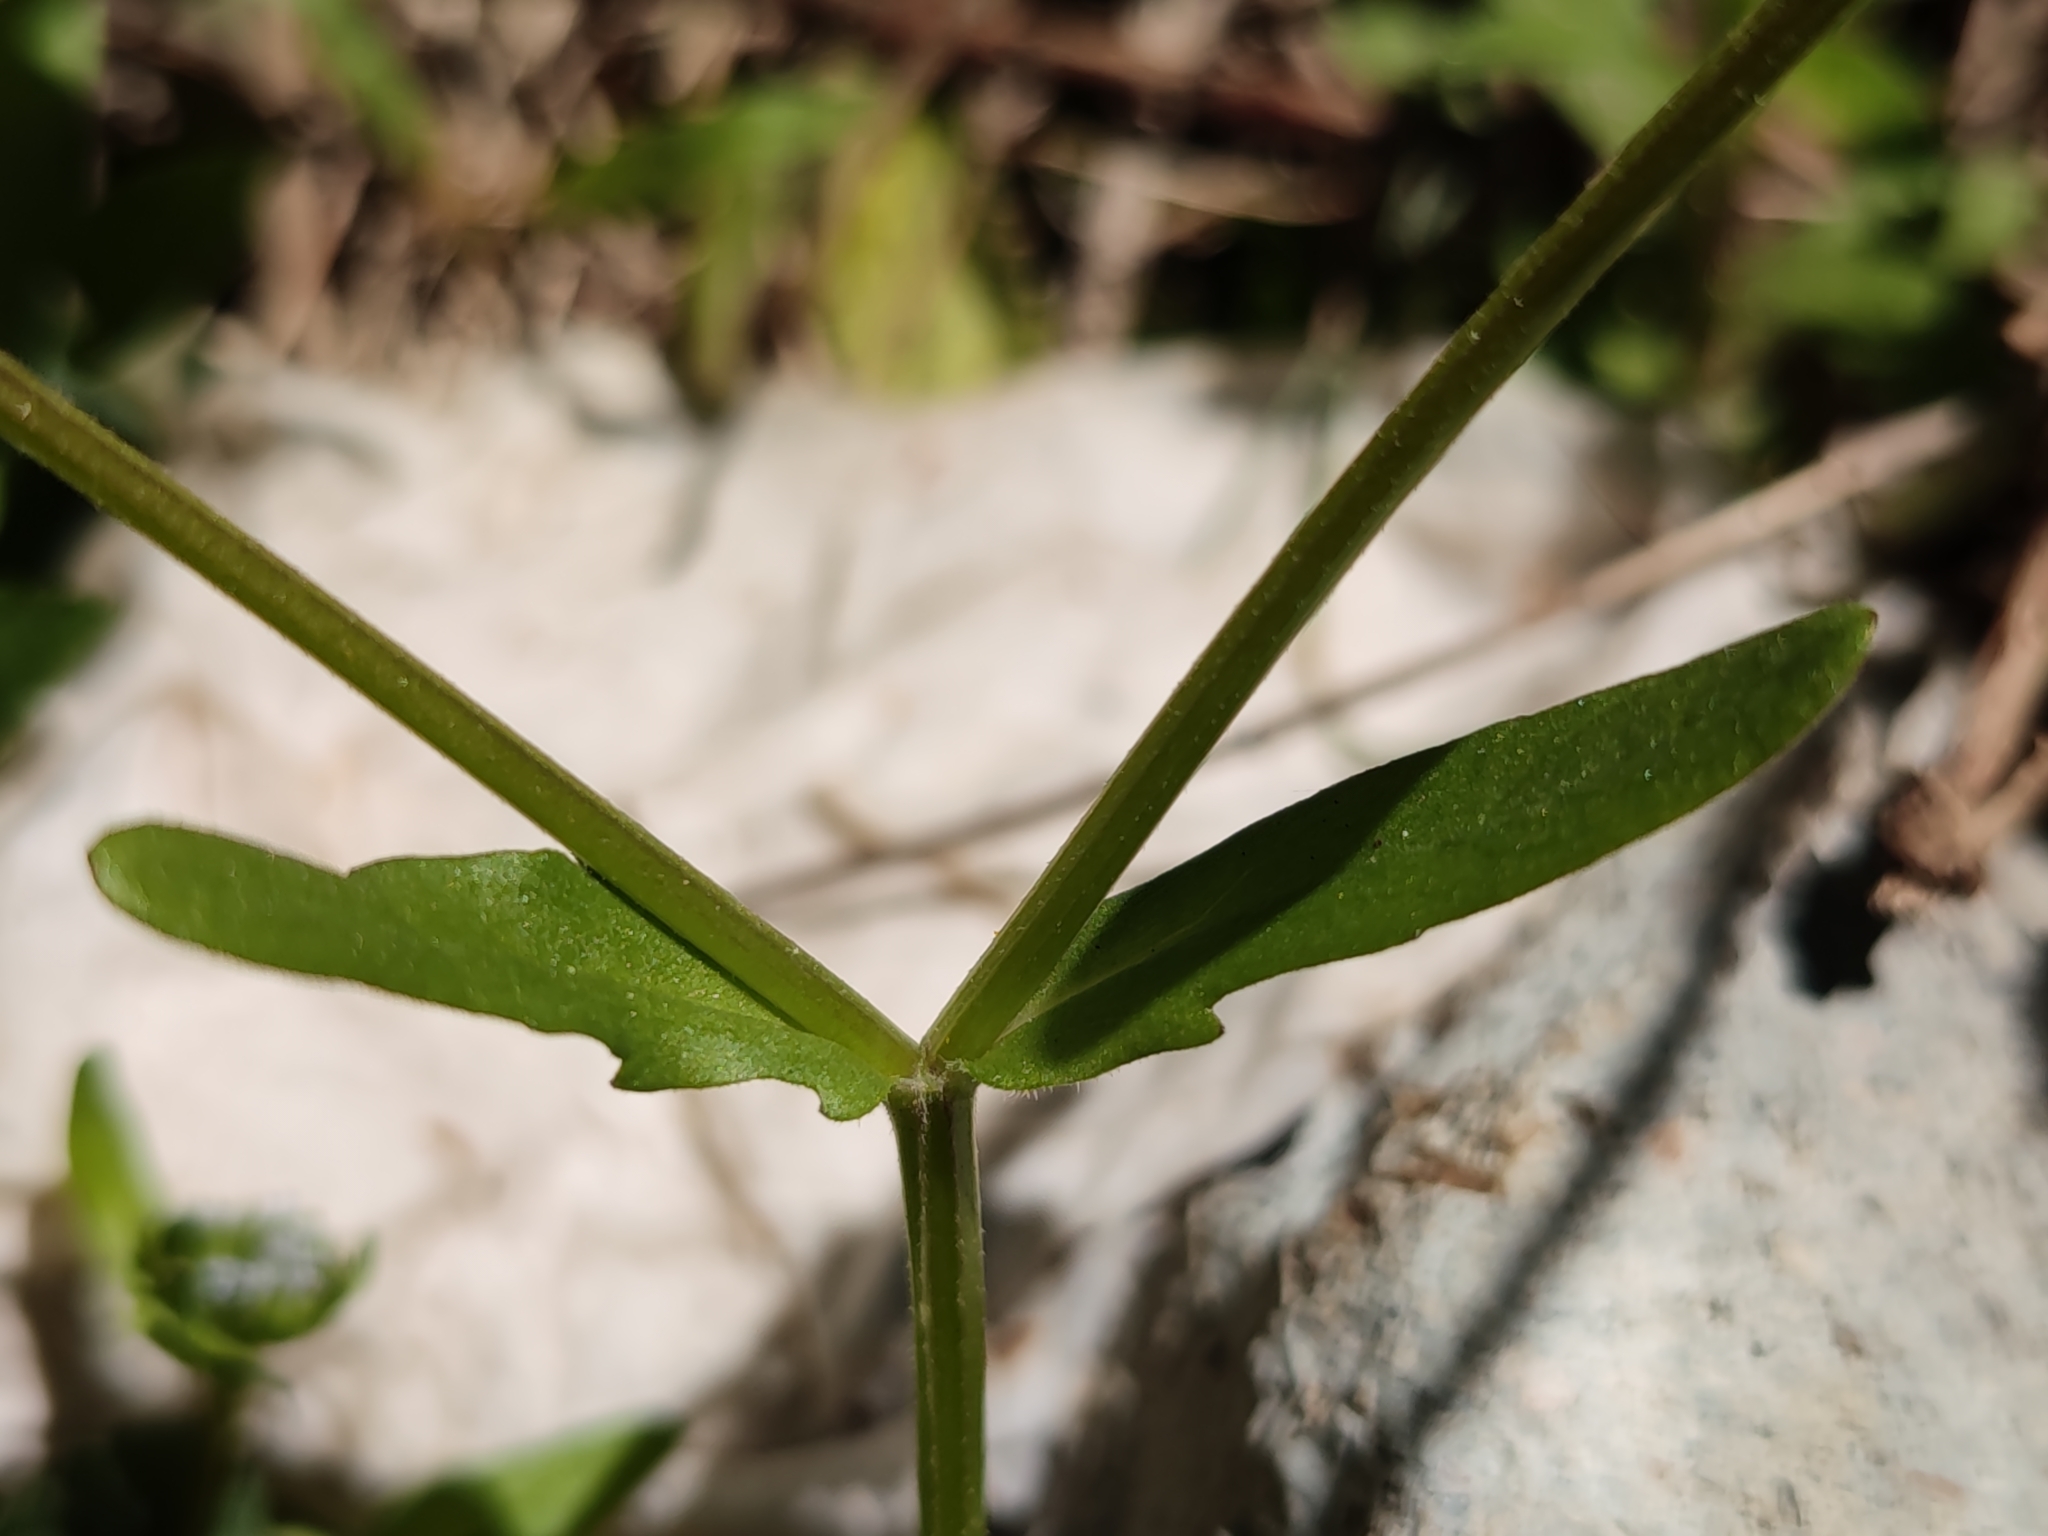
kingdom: Plantae
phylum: Tracheophyta
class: Magnoliopsida
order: Dipsacales
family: Caprifoliaceae
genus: Valerianella
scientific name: Valerianella locusta
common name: Common cornsalad
